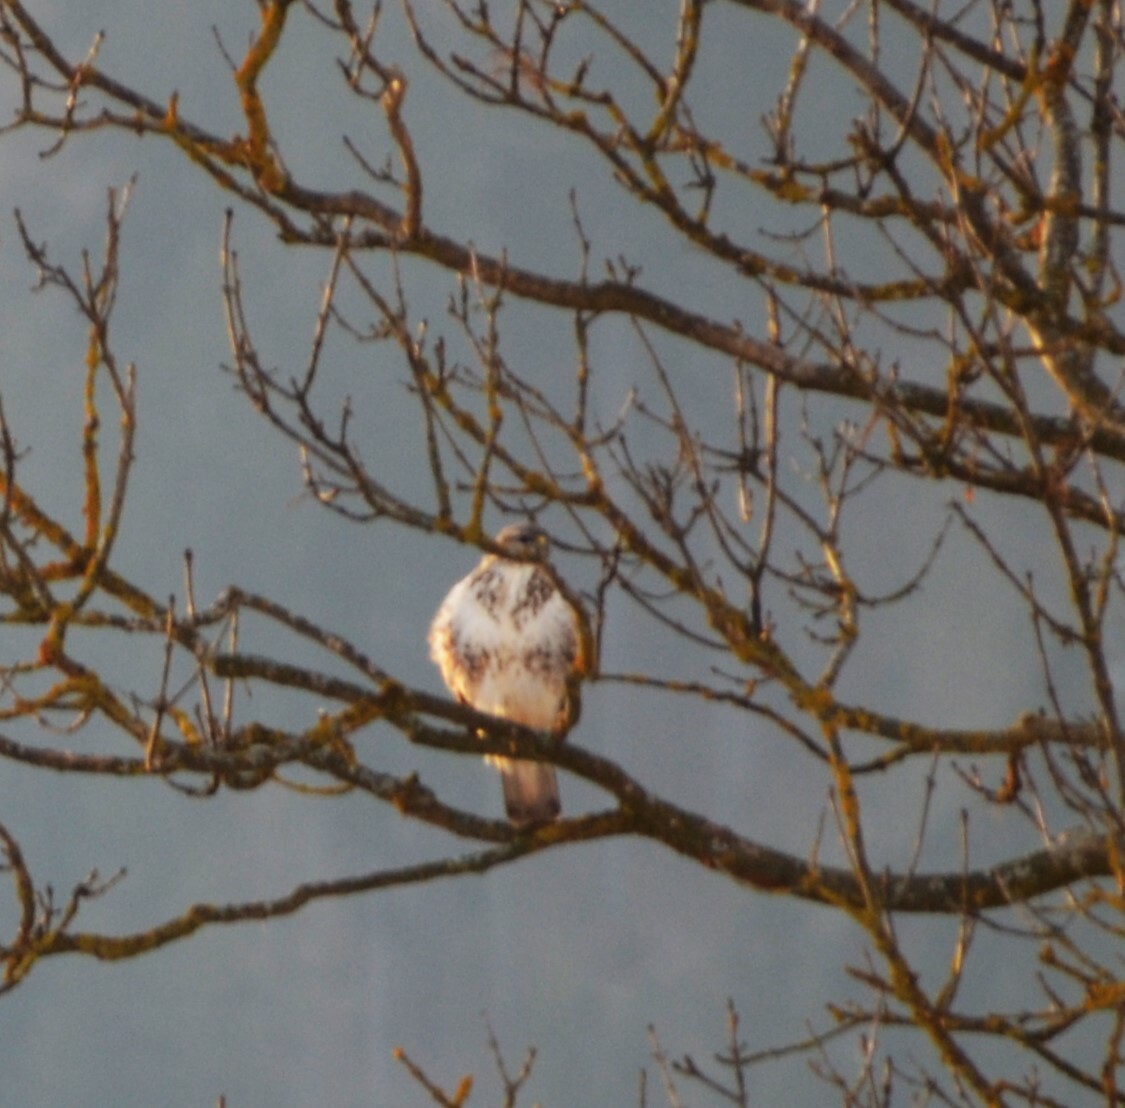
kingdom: Animalia
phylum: Chordata
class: Aves
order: Accipitriformes
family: Accipitridae
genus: Buteo
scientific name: Buteo buteo
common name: Common buzzard
